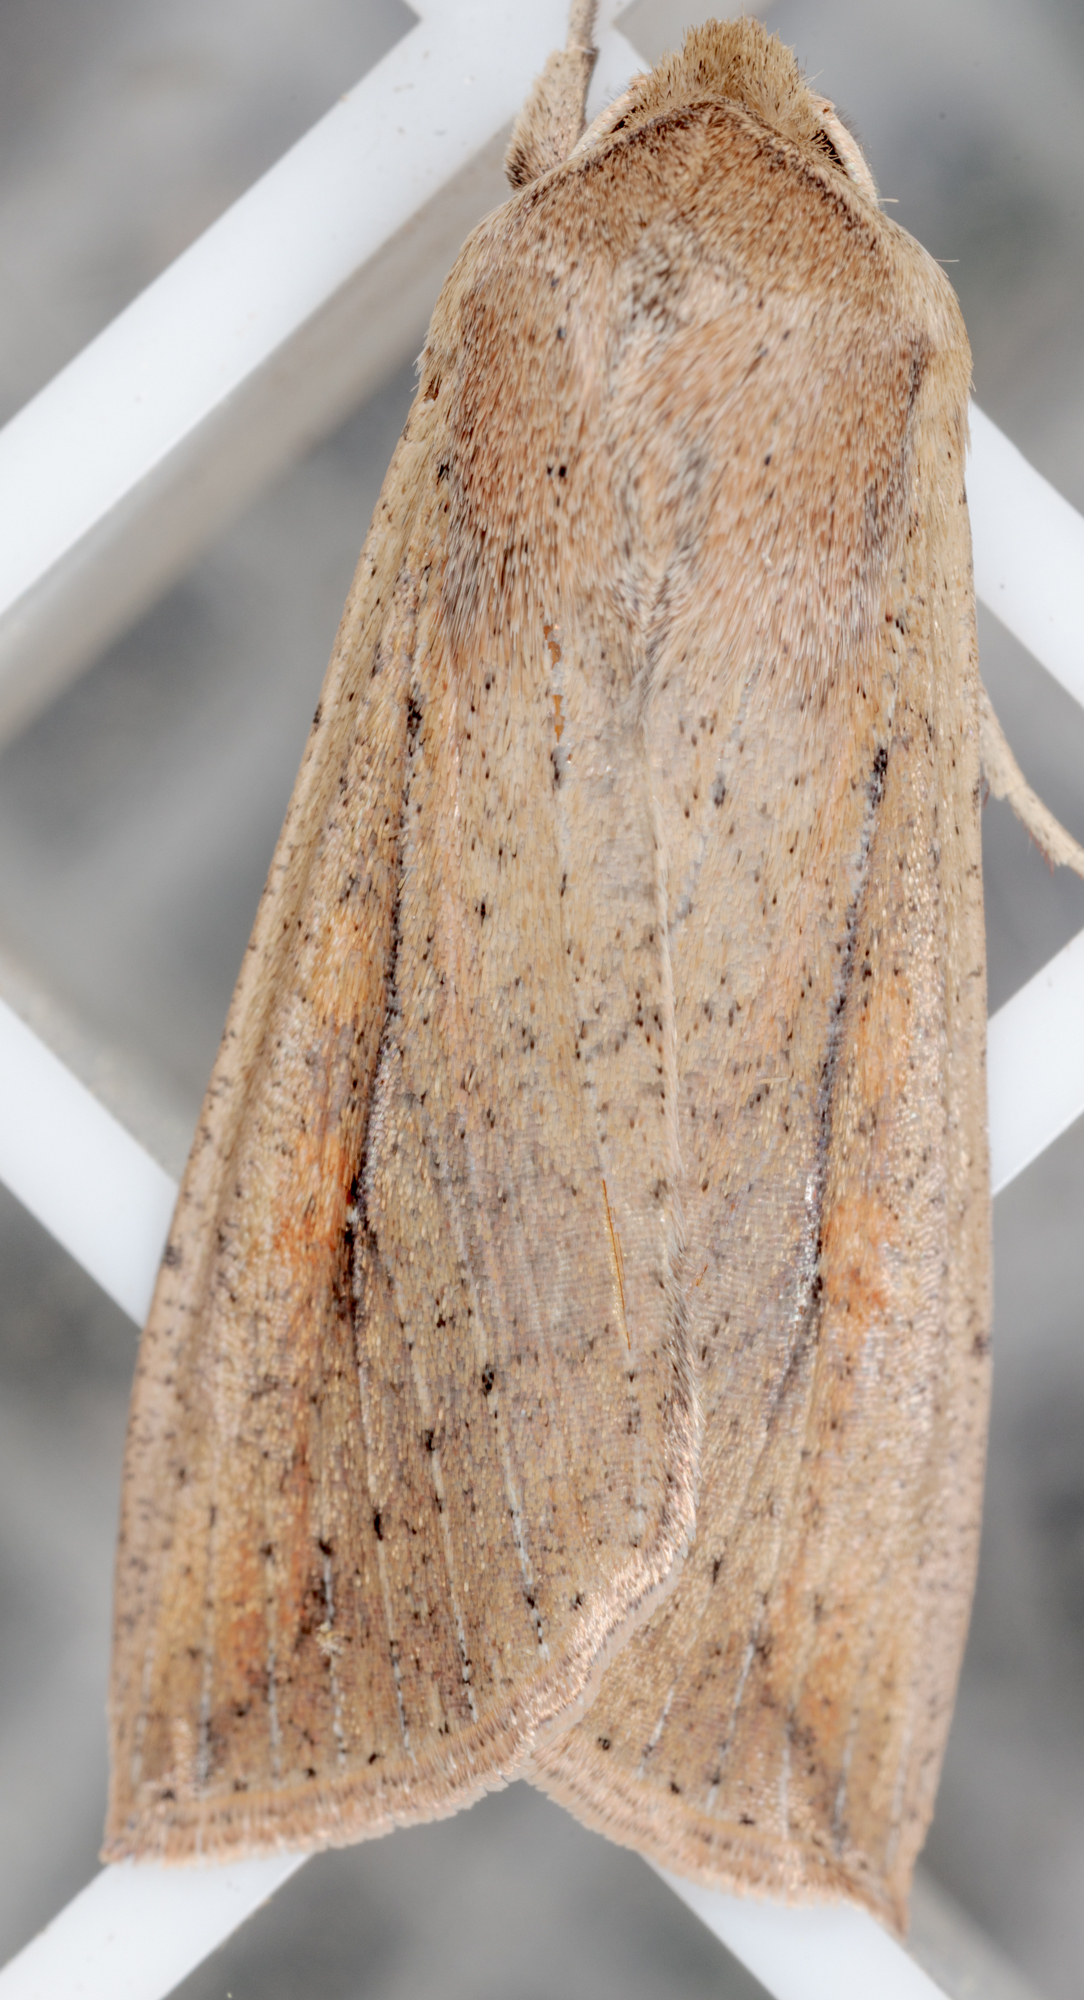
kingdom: Animalia
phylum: Arthropoda
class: Insecta
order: Lepidoptera
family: Noctuidae
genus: Mythimna
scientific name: Mythimna unipuncta
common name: White-speck
